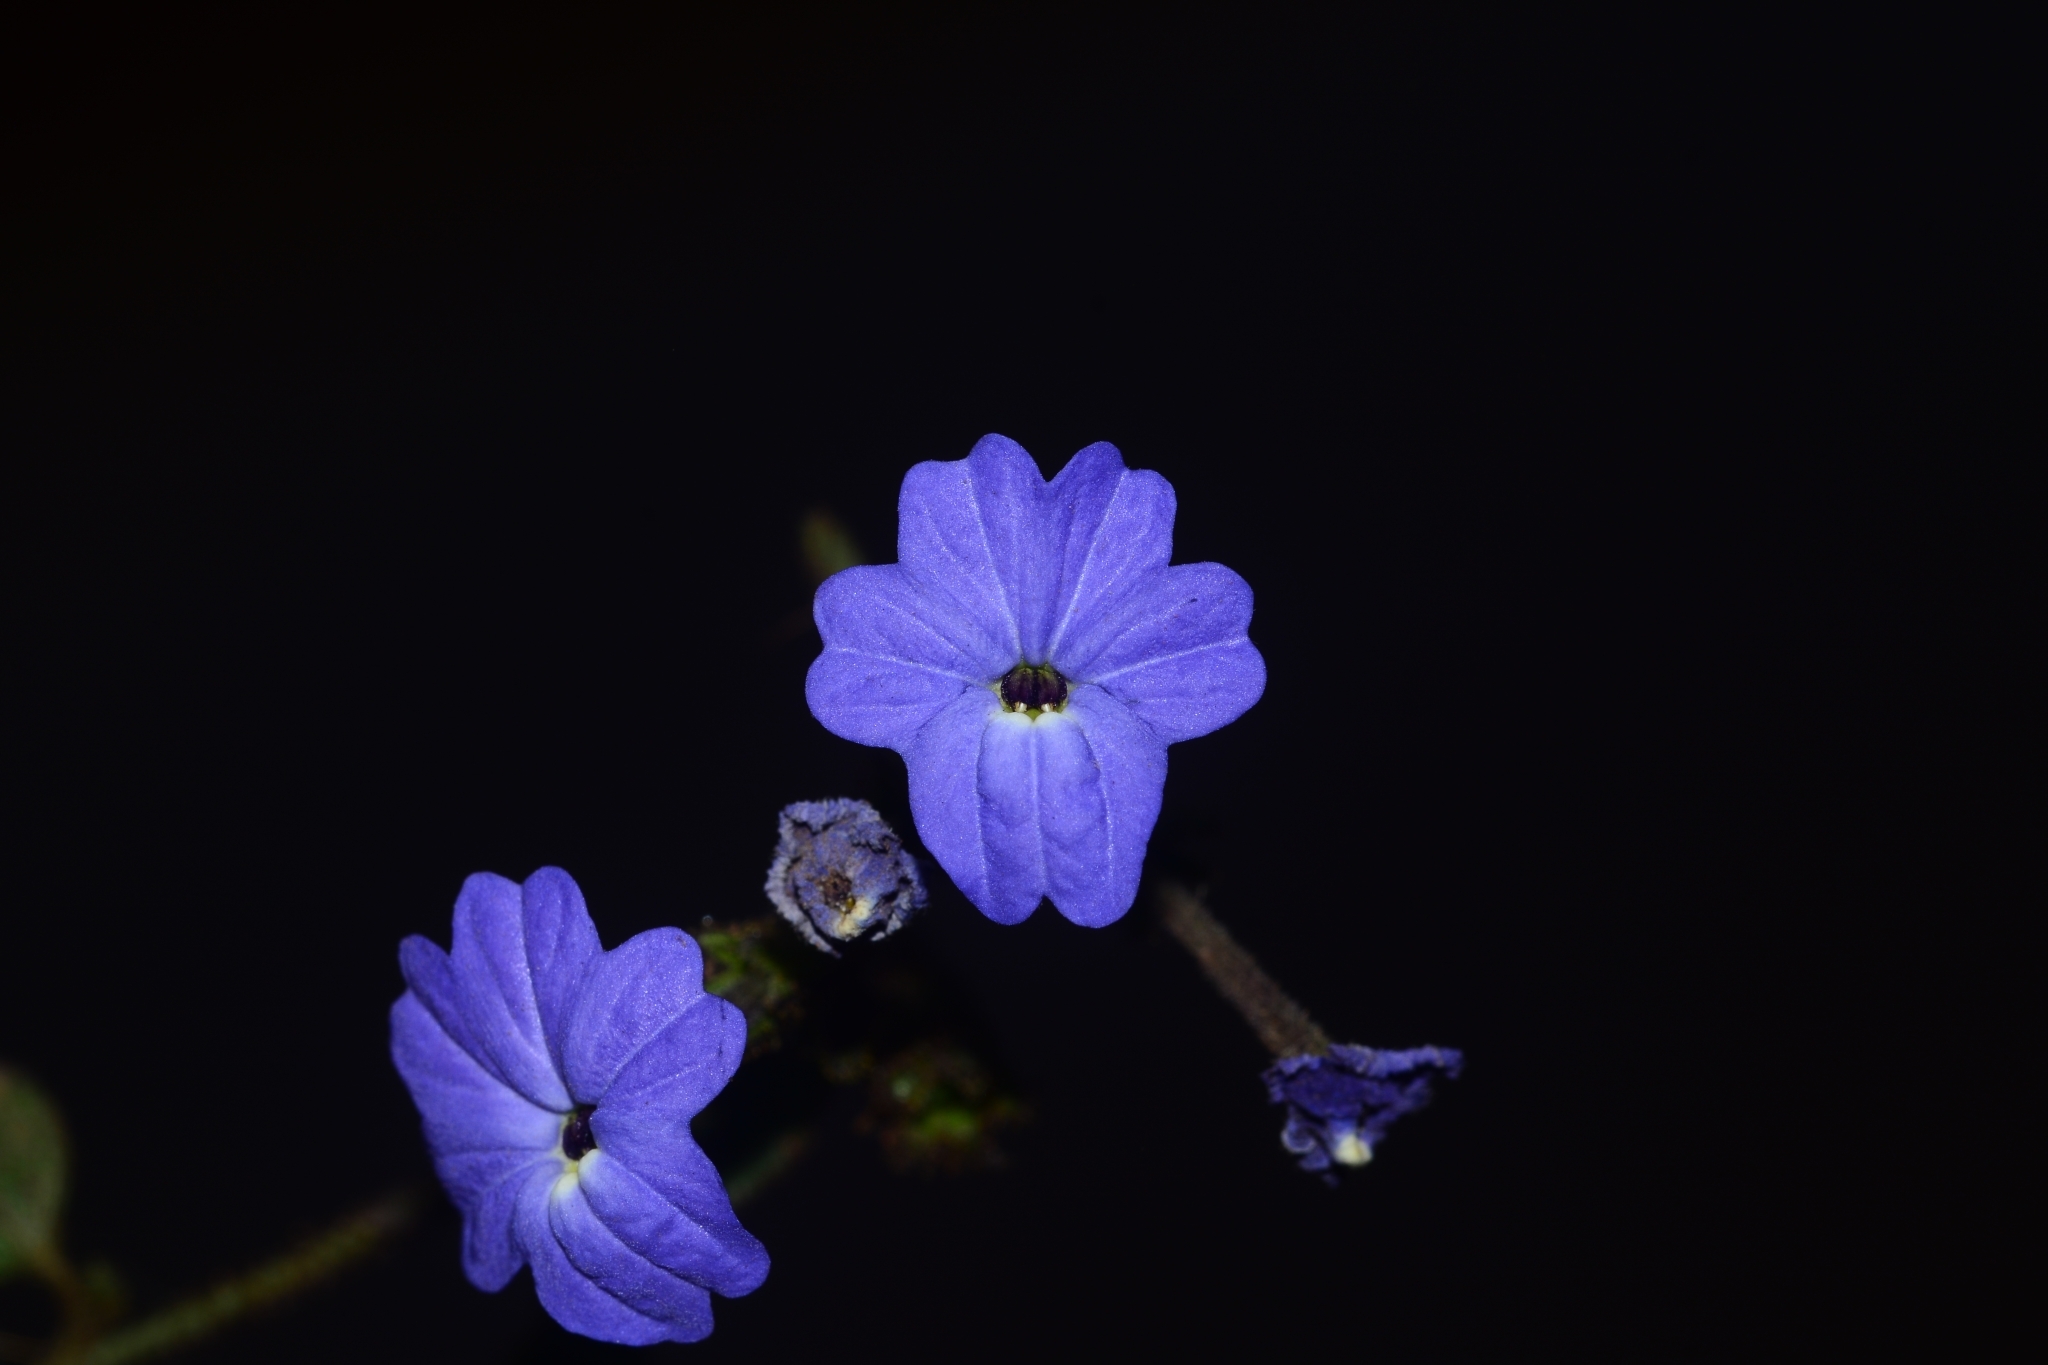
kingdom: Plantae
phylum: Tracheophyta
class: Magnoliopsida
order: Solanales
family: Solanaceae
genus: Browallia
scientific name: Browallia speciosa
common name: Bush-violet
